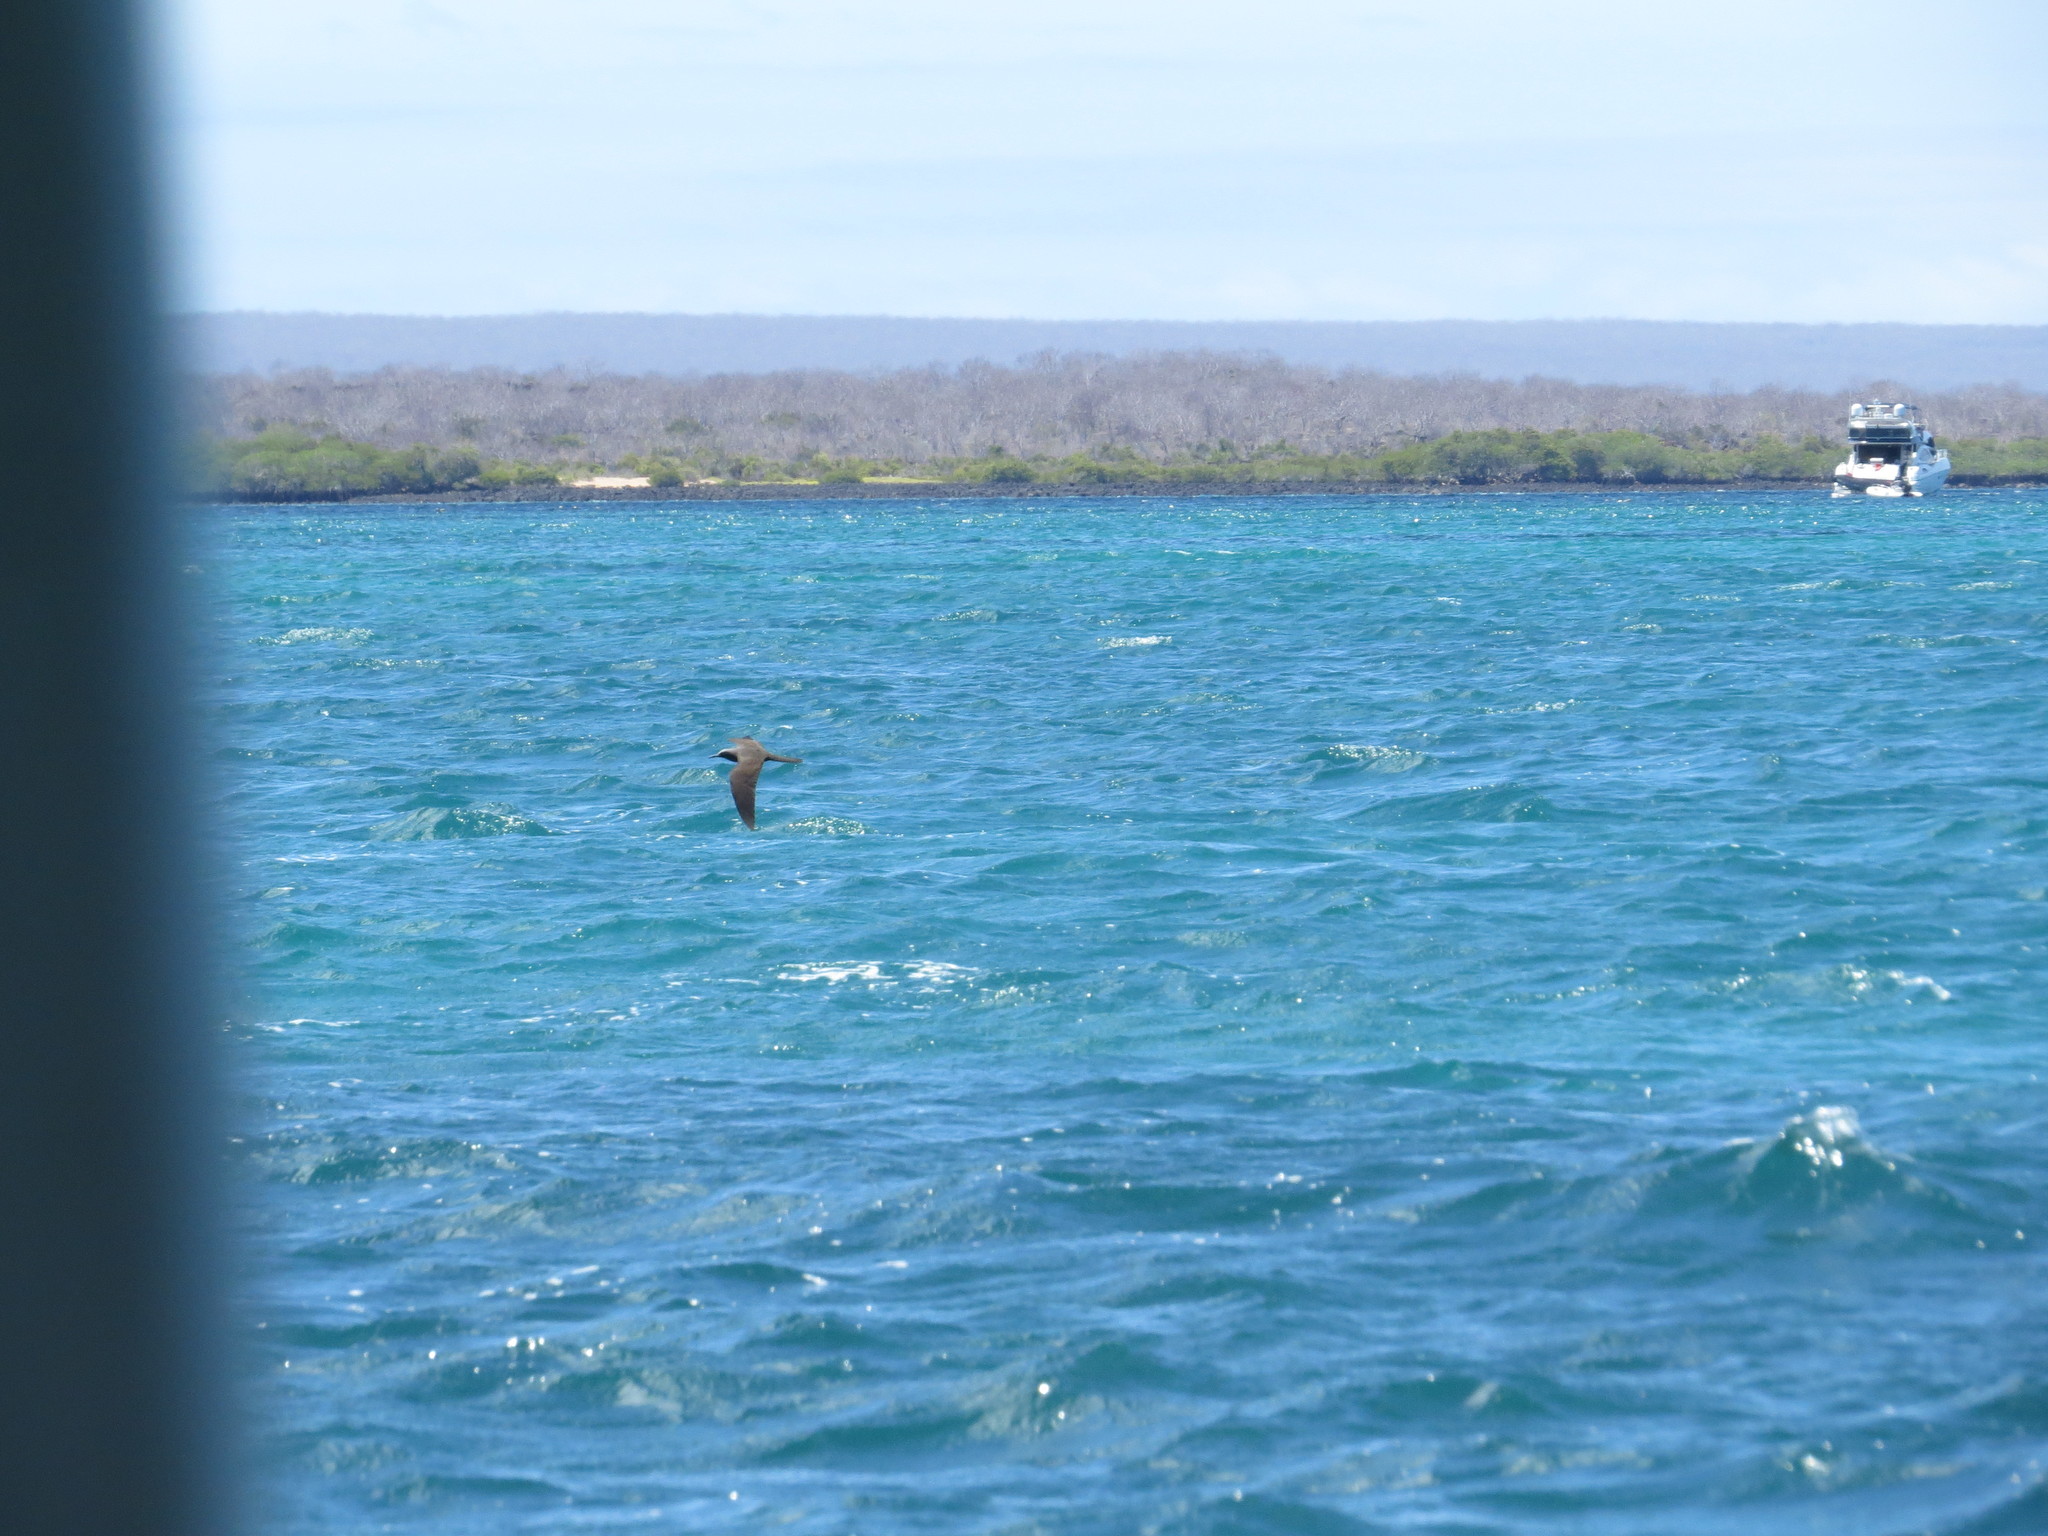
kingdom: Animalia
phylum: Chordata
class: Aves
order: Charadriiformes
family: Laridae
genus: Anous
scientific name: Anous stolidus
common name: Brown noddy
